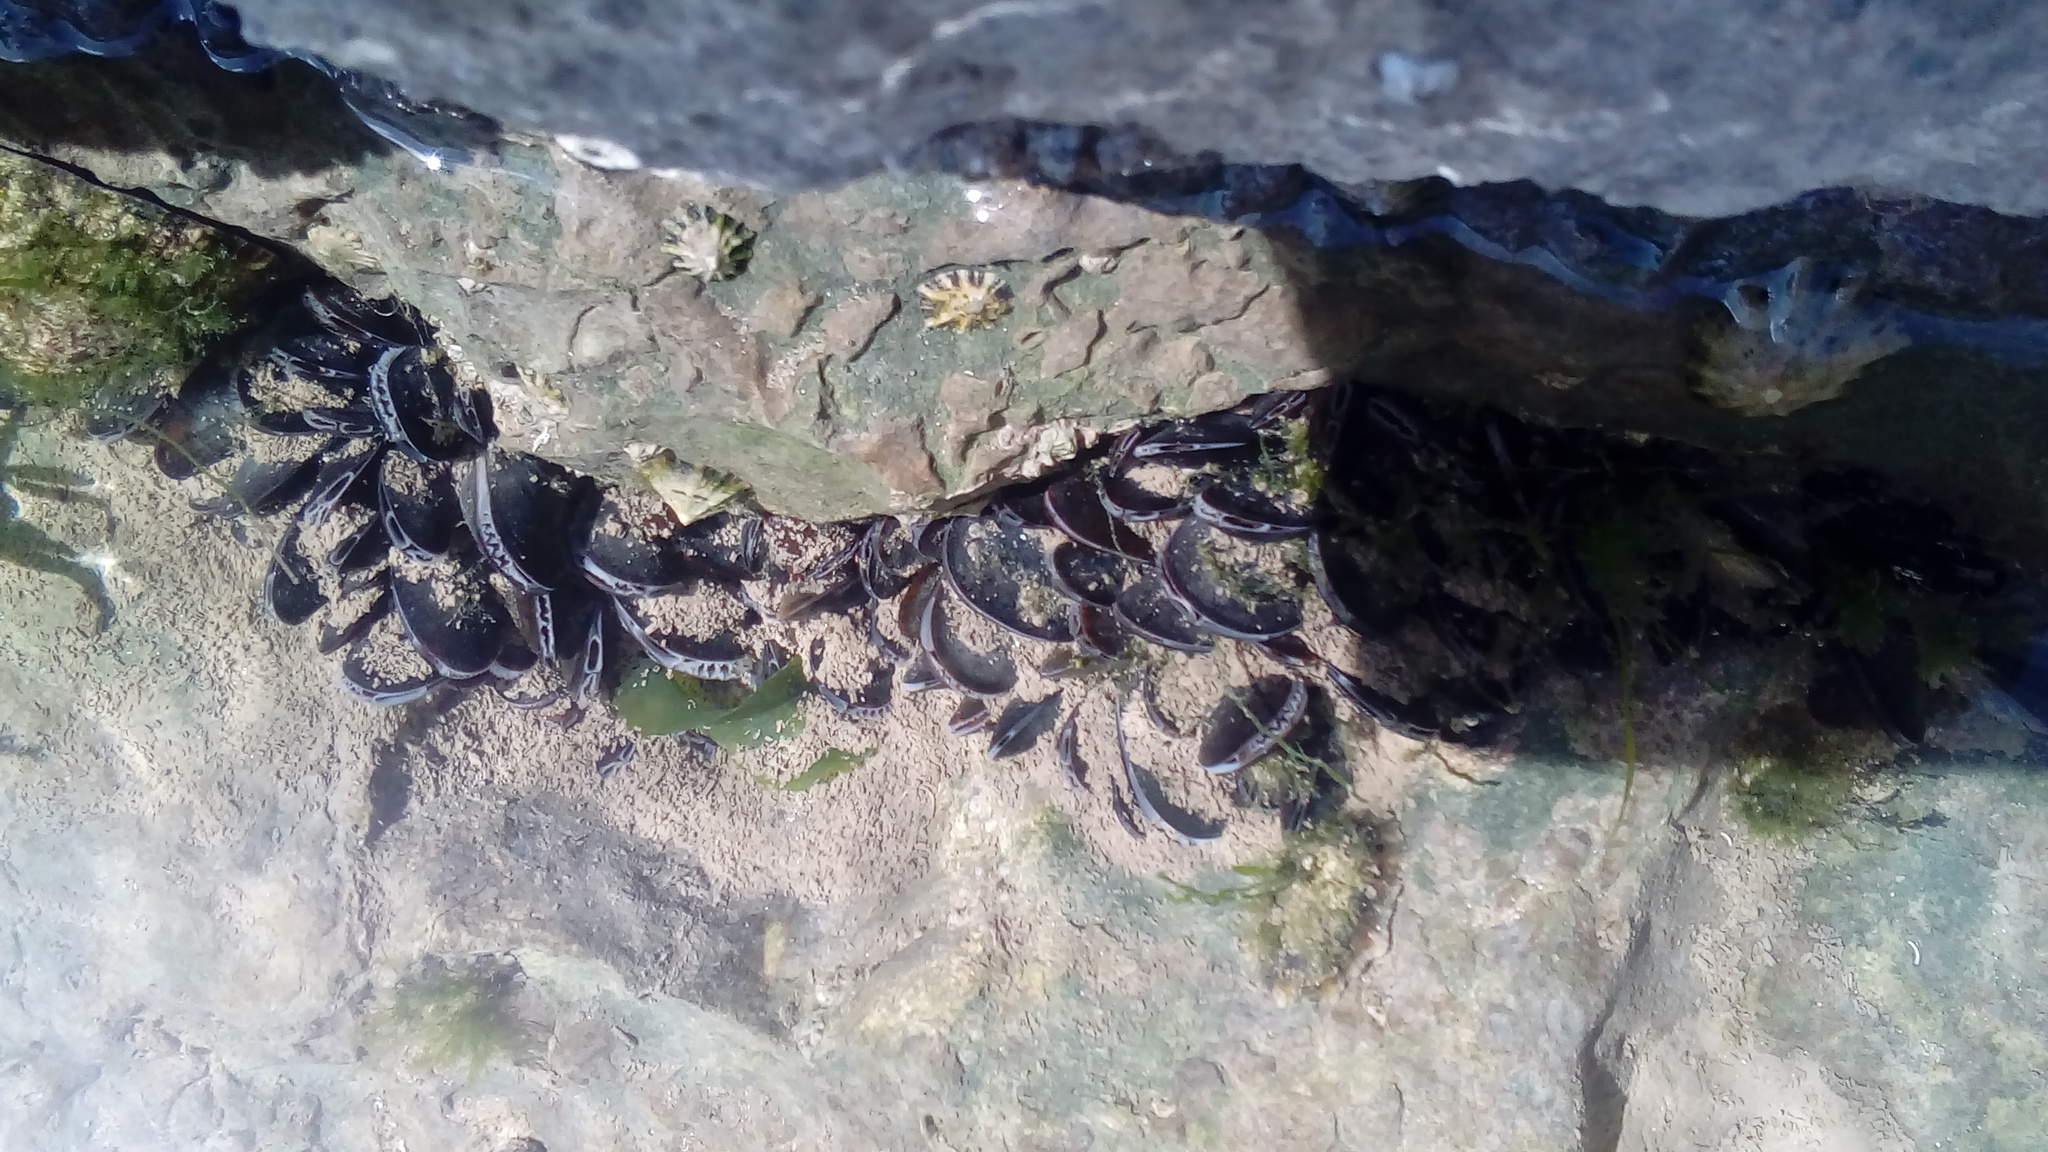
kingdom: Animalia
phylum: Mollusca
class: Bivalvia
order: Mytilida
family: Mytilidae
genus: Mytilus
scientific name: Mytilus edulis
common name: Blue mussel
